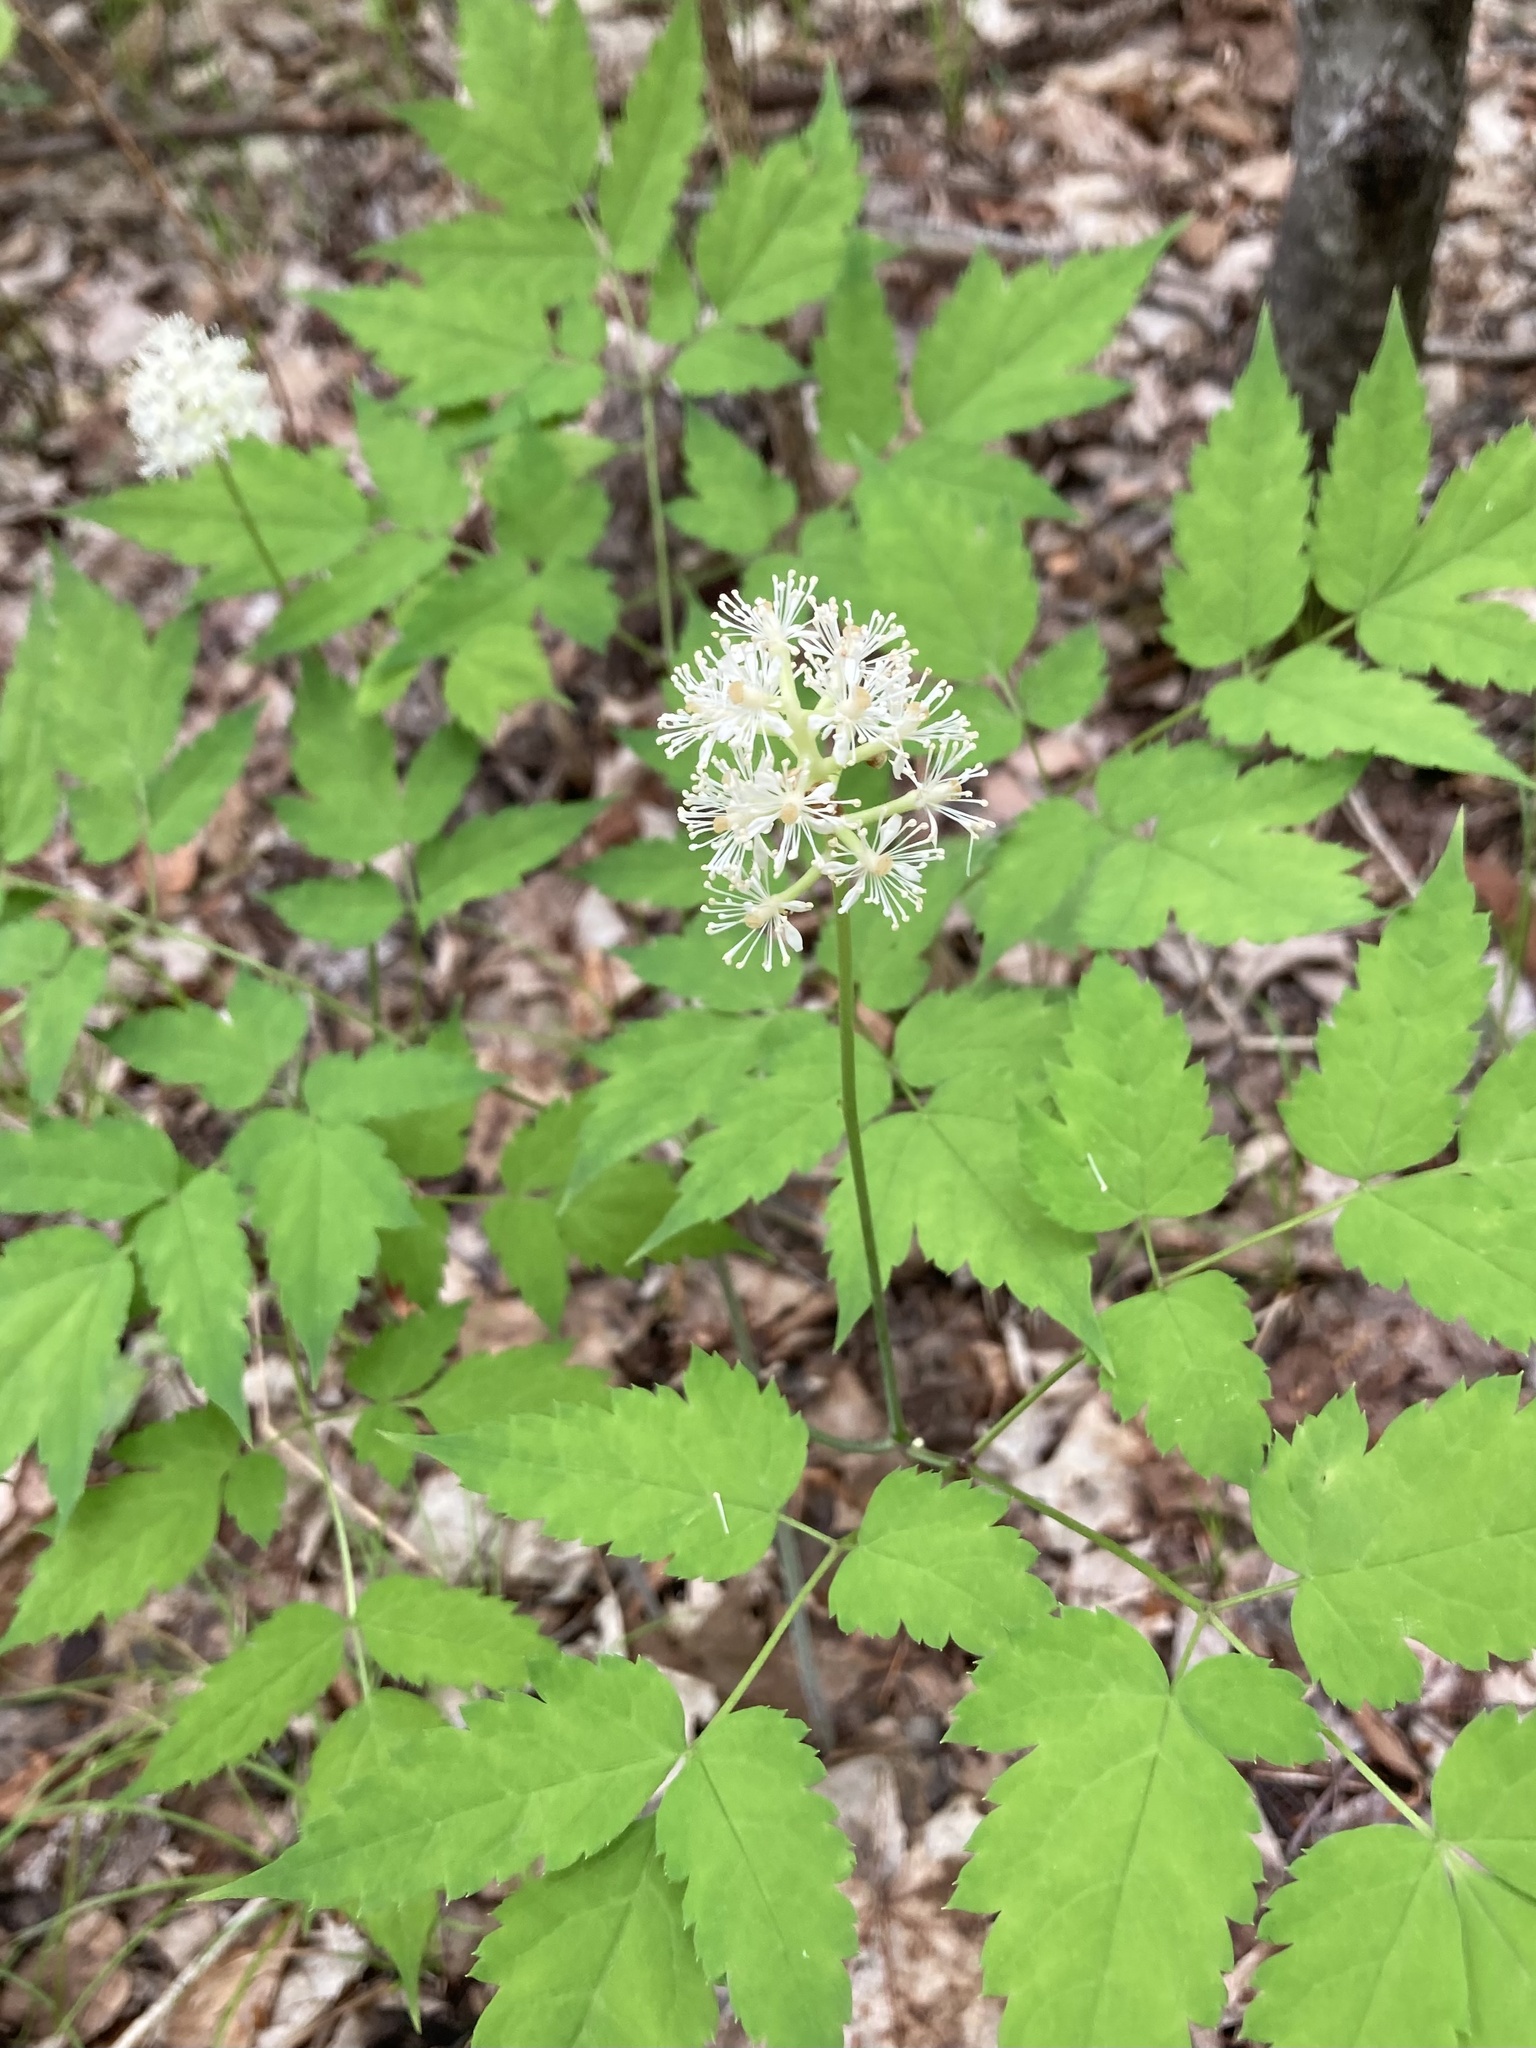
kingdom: Plantae
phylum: Tracheophyta
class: Magnoliopsida
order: Ranunculales
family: Ranunculaceae
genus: Actaea
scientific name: Actaea pachypoda
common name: Doll's-eyes
